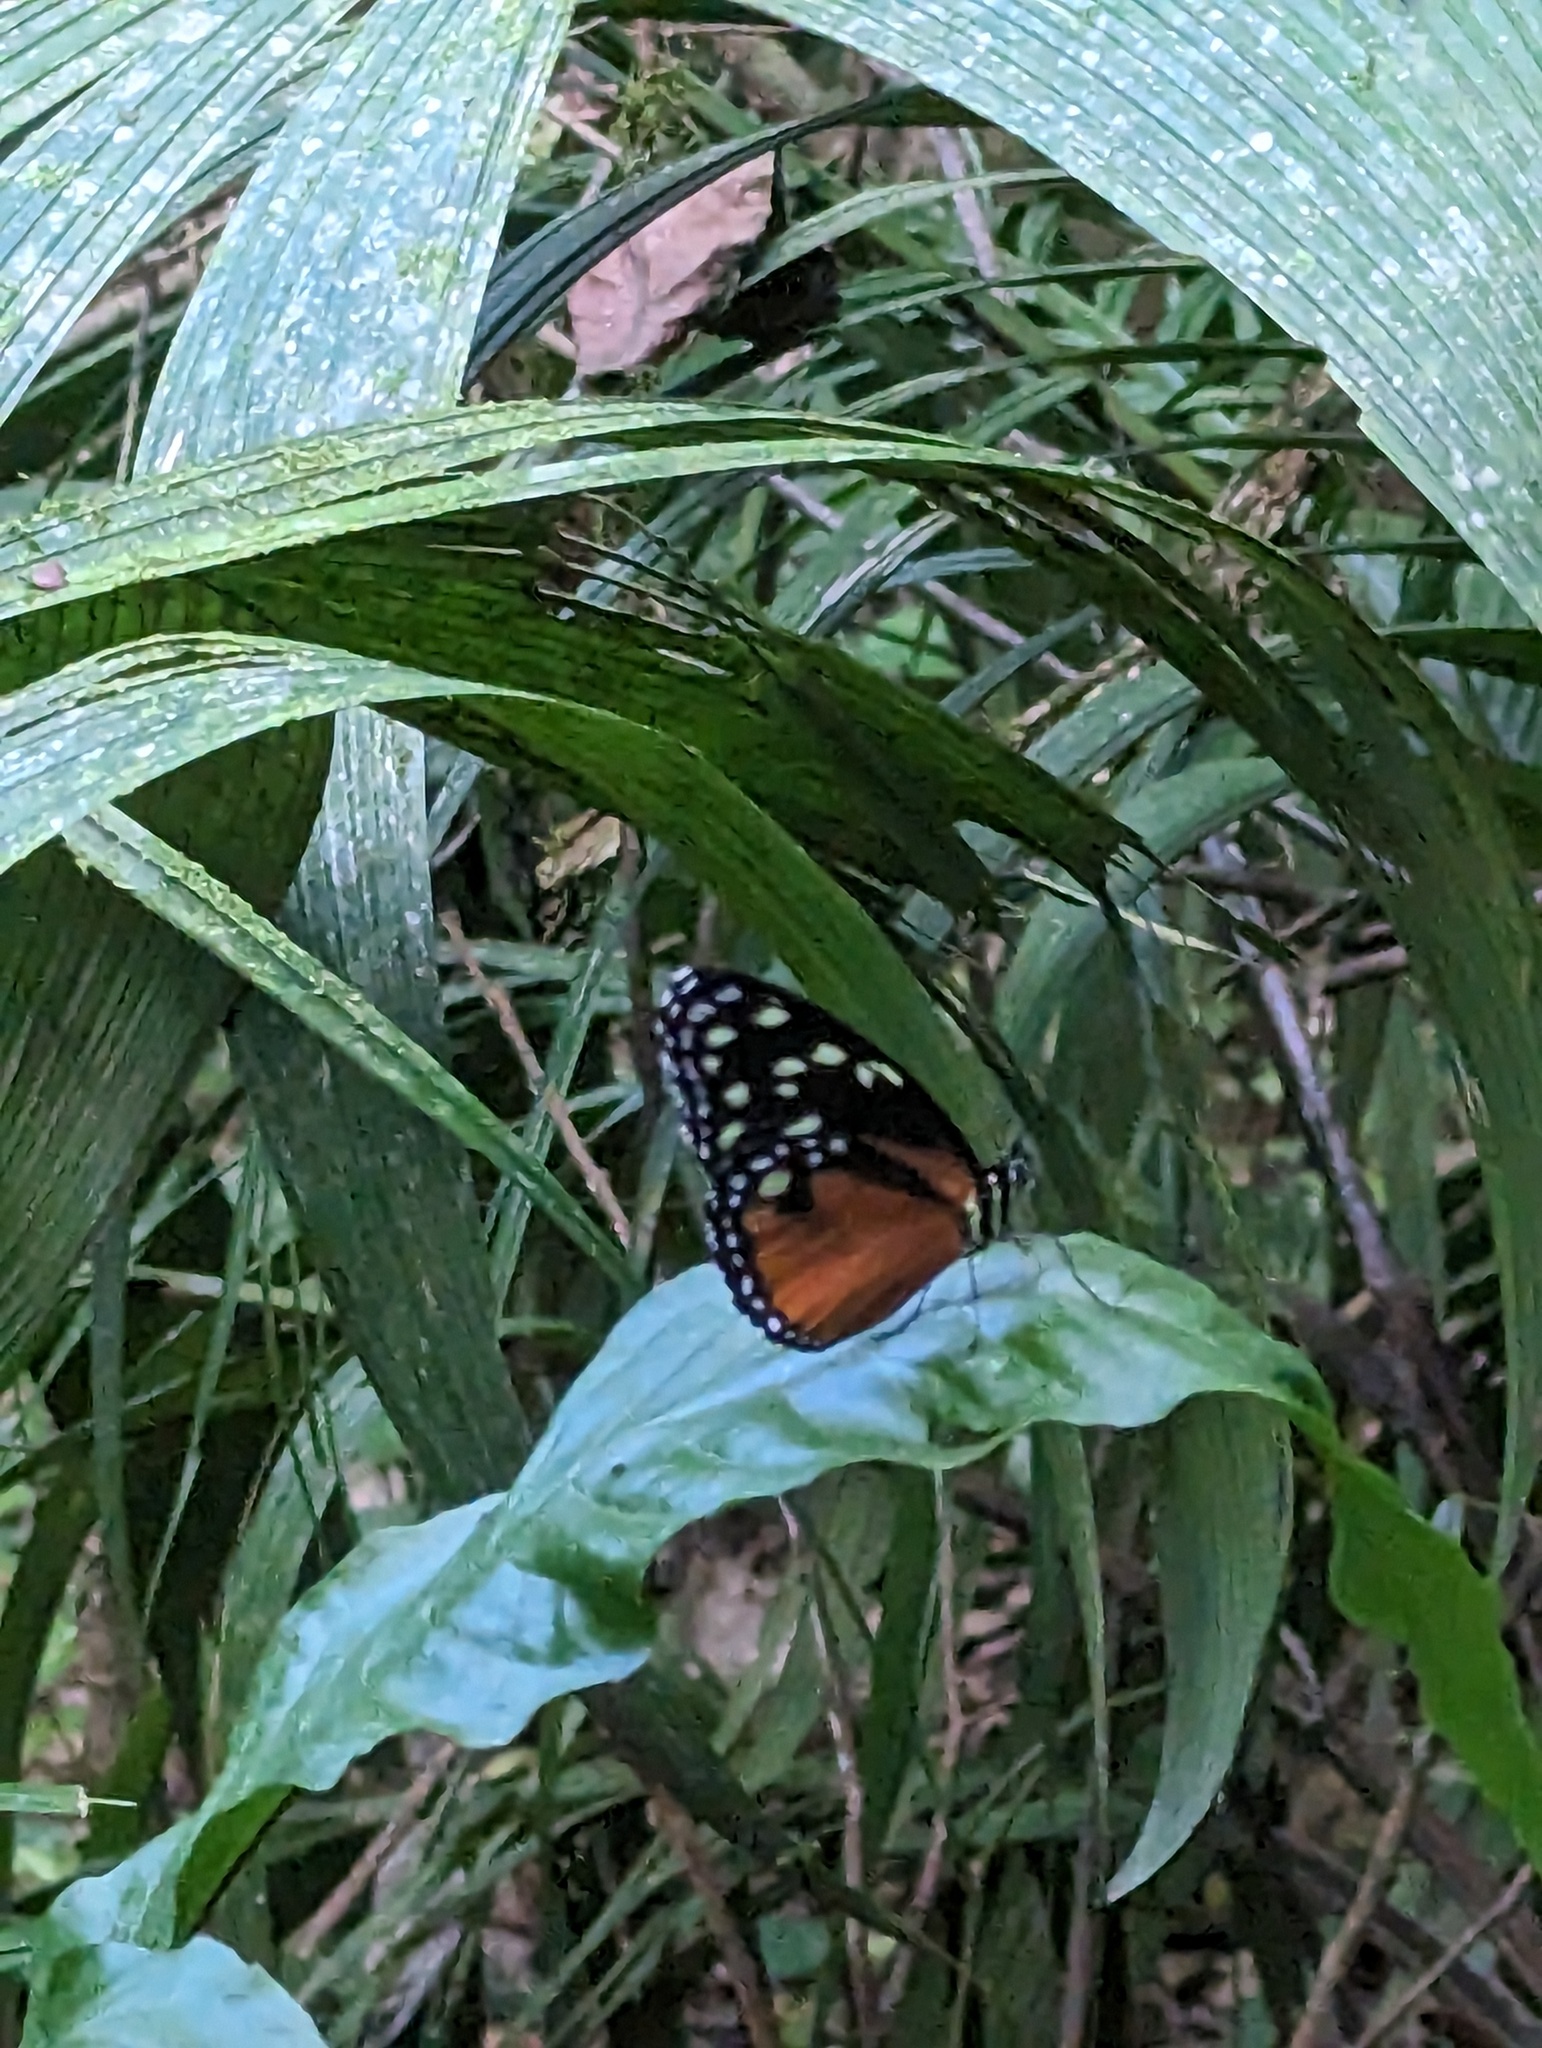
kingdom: Animalia
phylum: Arthropoda
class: Insecta
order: Lepidoptera
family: Nymphalidae
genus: Tithorea
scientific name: Tithorea tarricina
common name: Cream-spotted tigerwing
